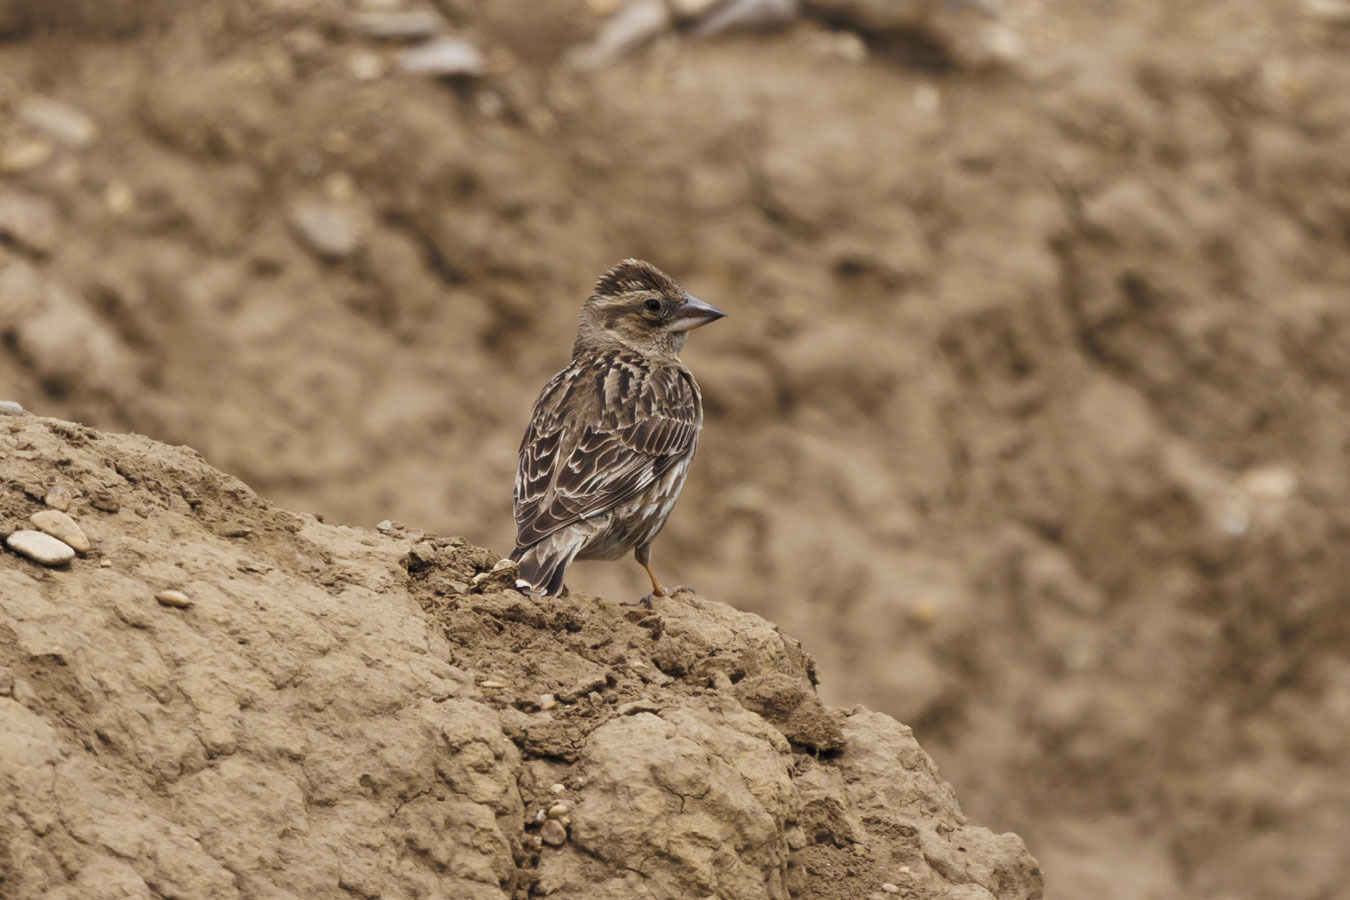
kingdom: Animalia
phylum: Chordata
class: Aves
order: Passeriformes
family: Passeridae
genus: Petronia
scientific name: Petronia petronia
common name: Rock sparrow
